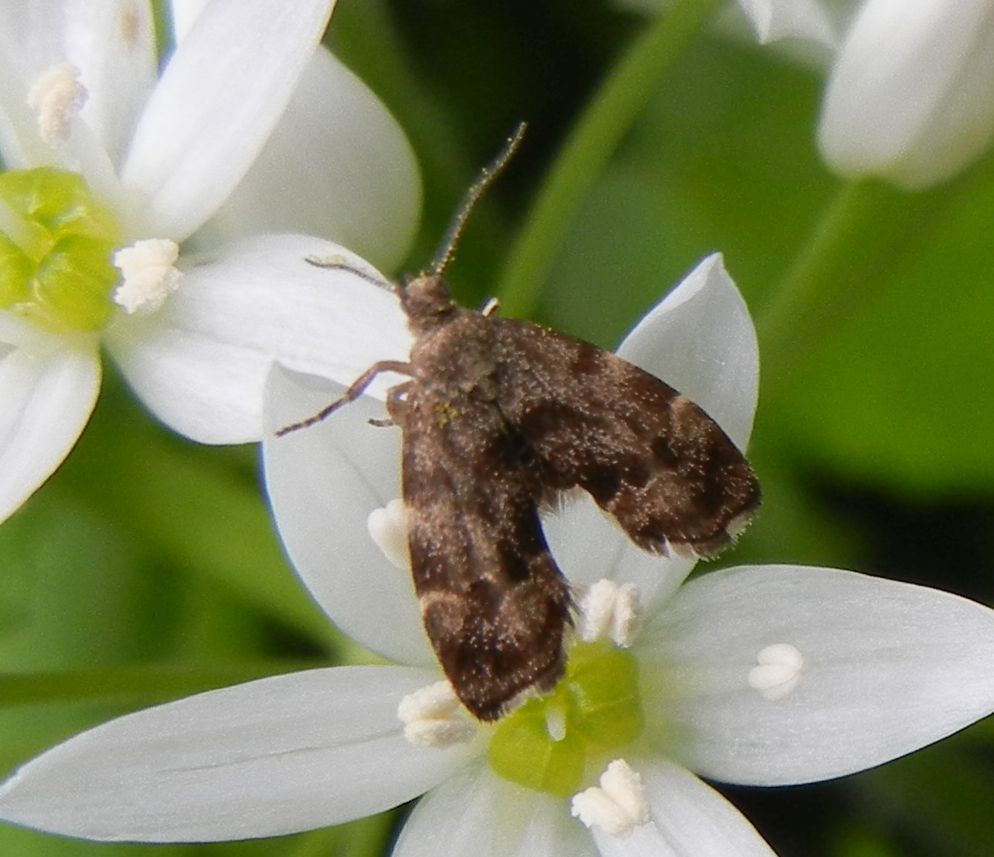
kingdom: Animalia
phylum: Arthropoda
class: Insecta
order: Lepidoptera
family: Choreutidae
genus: Anthophila
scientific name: Anthophila fabriciana
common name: Nettle-tap
